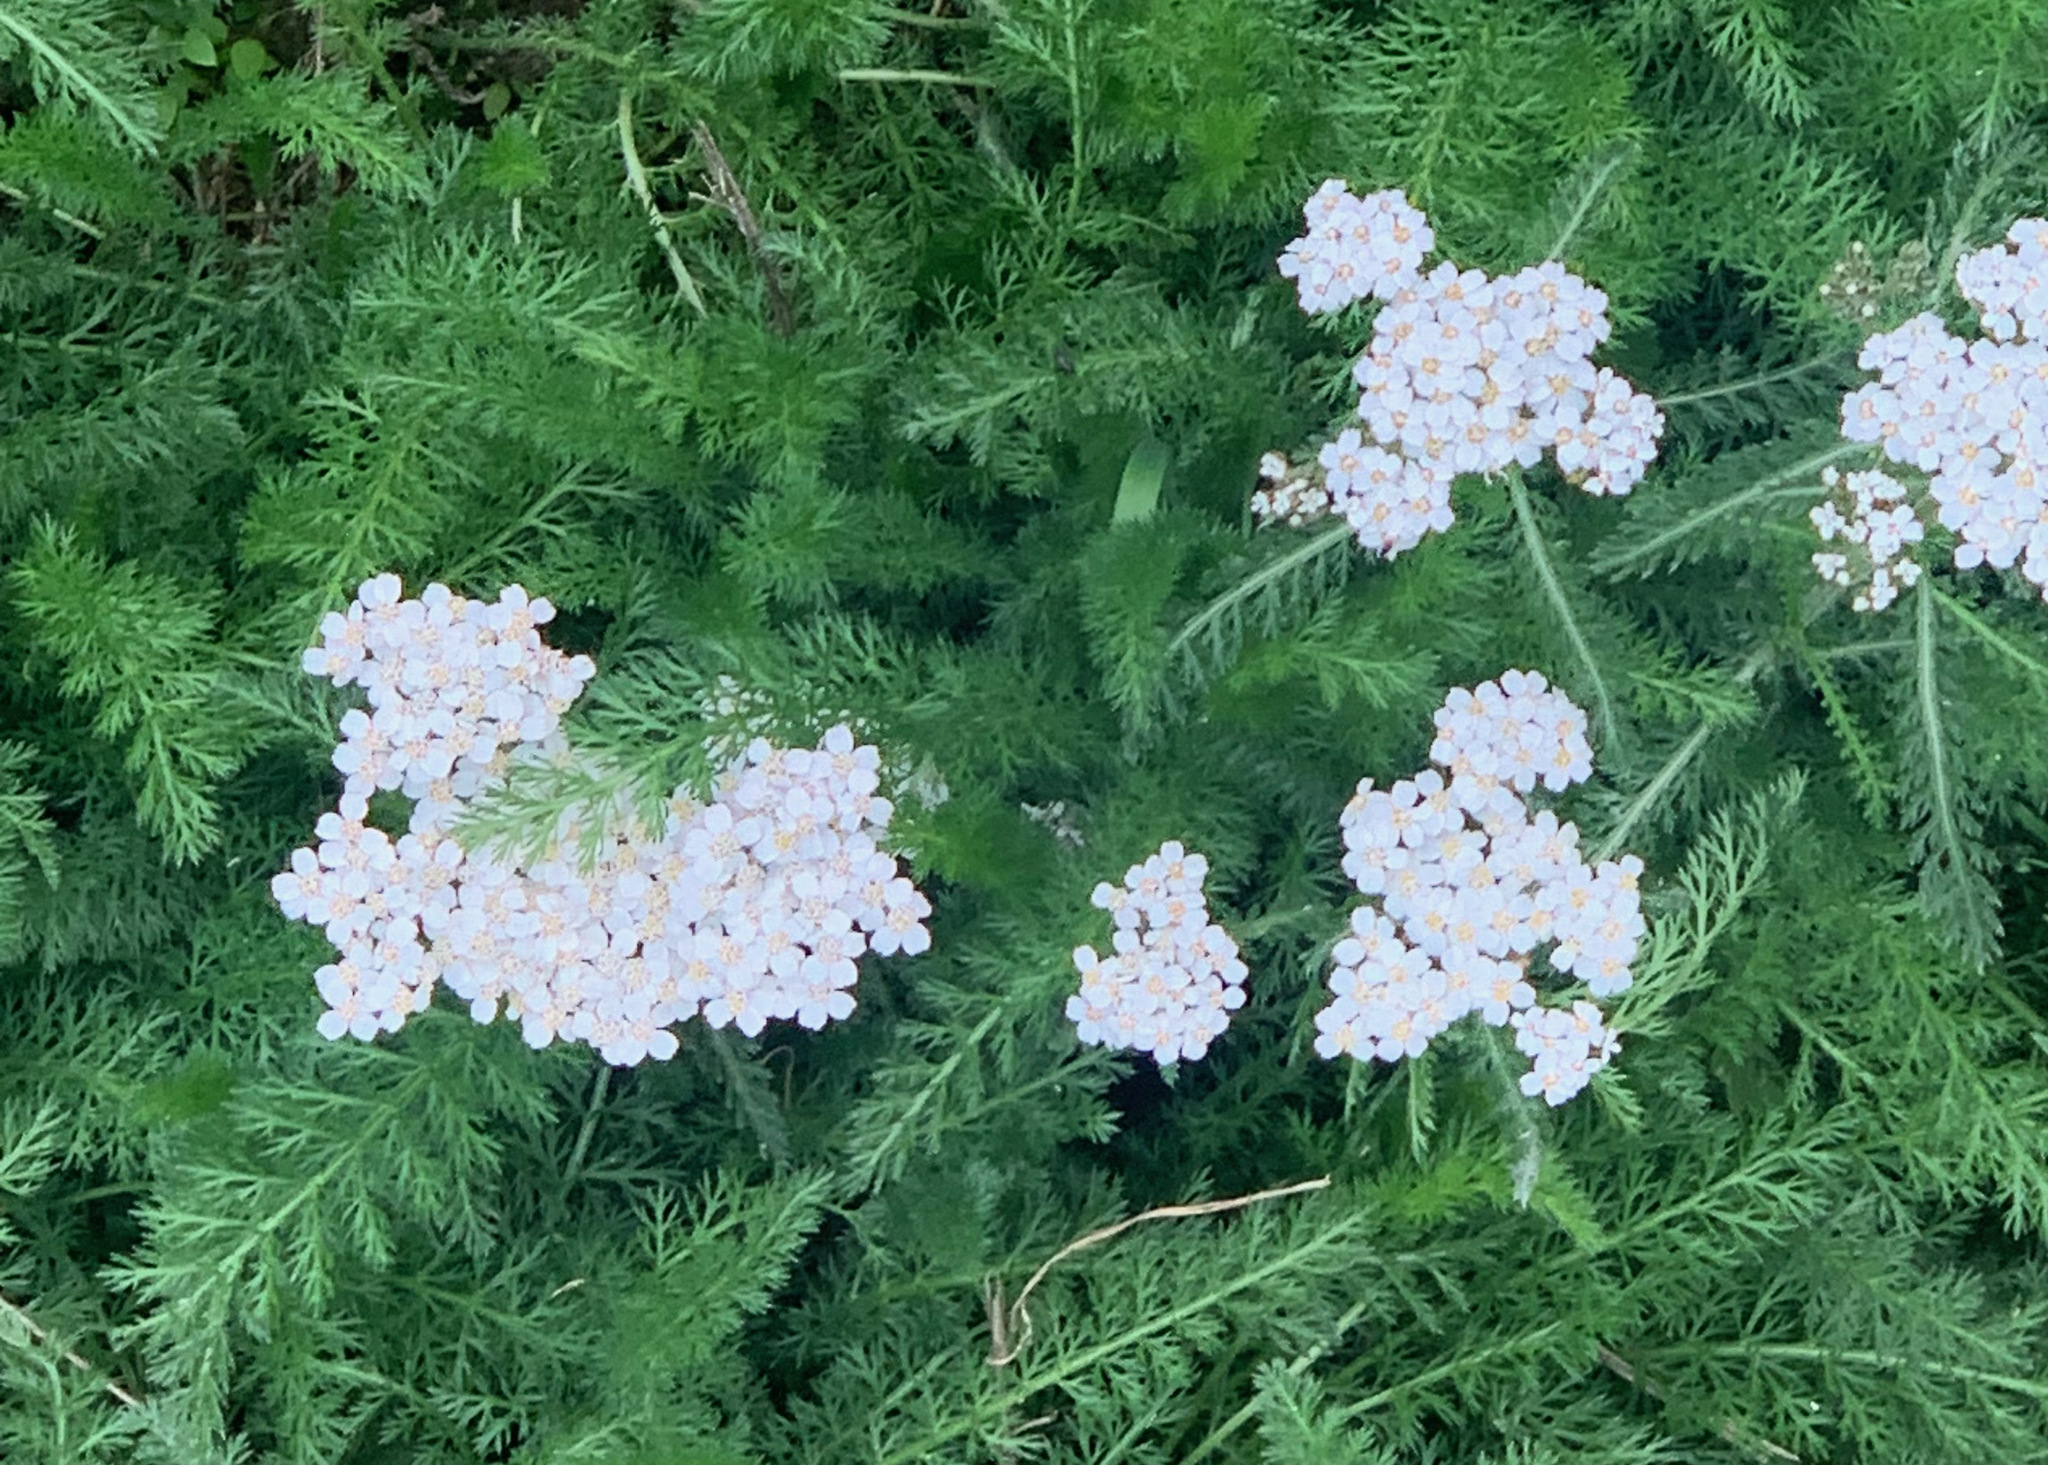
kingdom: Plantae
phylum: Tracheophyta
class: Magnoliopsida
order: Asterales
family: Asteraceae
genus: Achillea
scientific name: Achillea millefolium
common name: Yarrow
